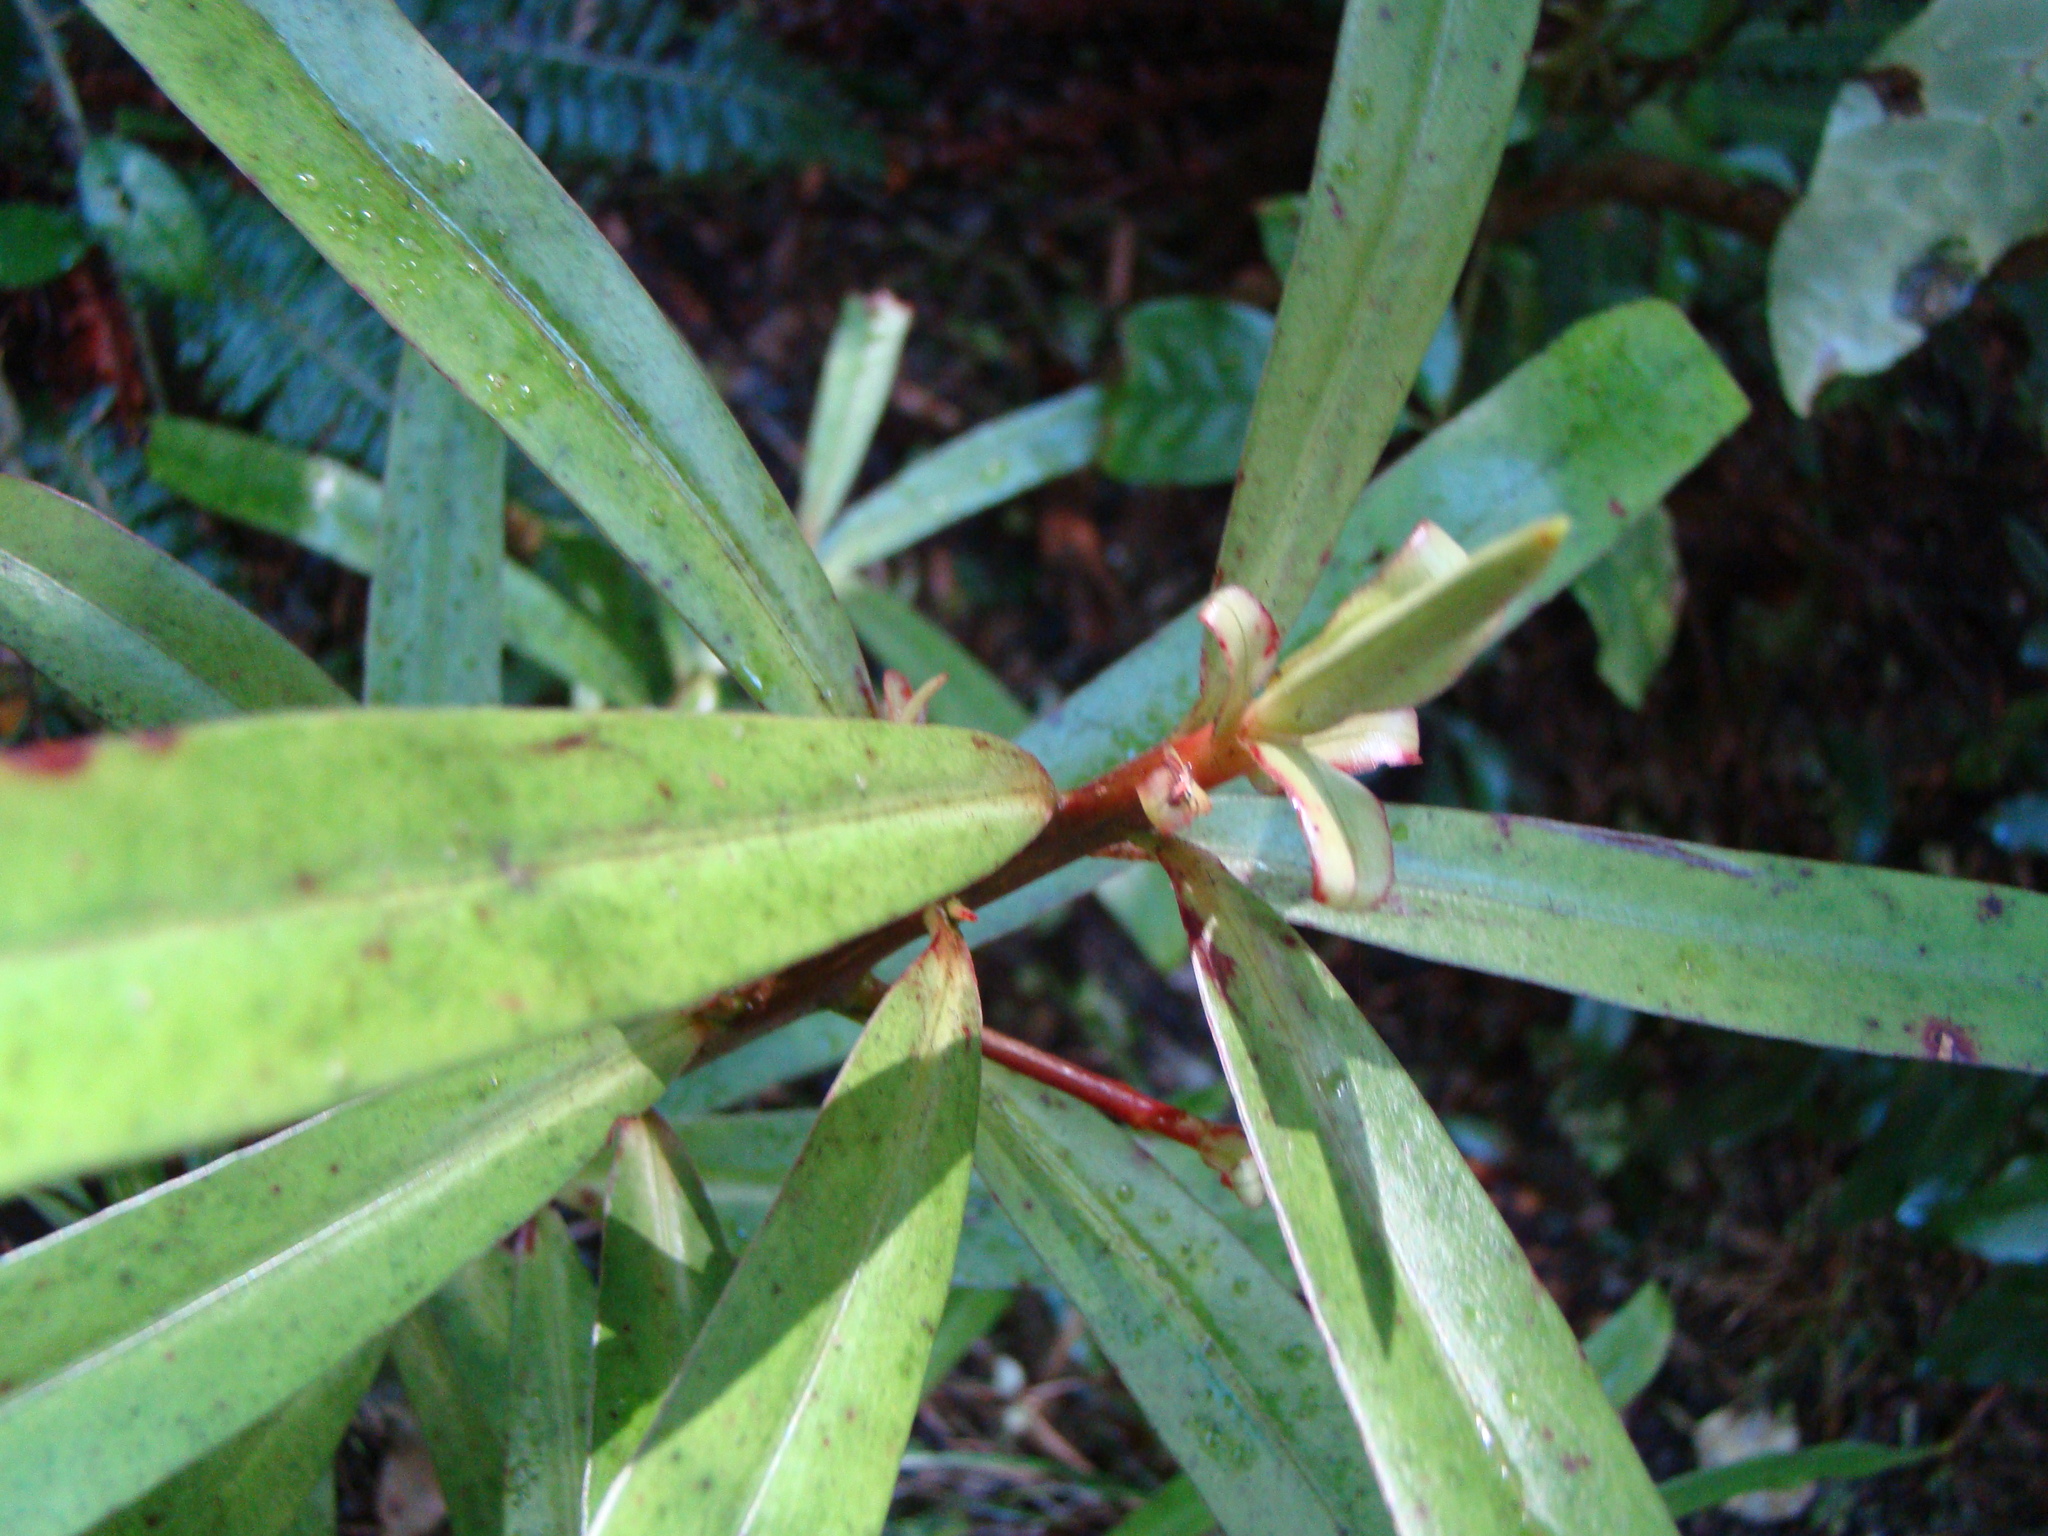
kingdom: Plantae
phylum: Tracheophyta
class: Magnoliopsida
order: Ericales
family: Primulaceae
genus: Myrsine
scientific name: Myrsine salicina
